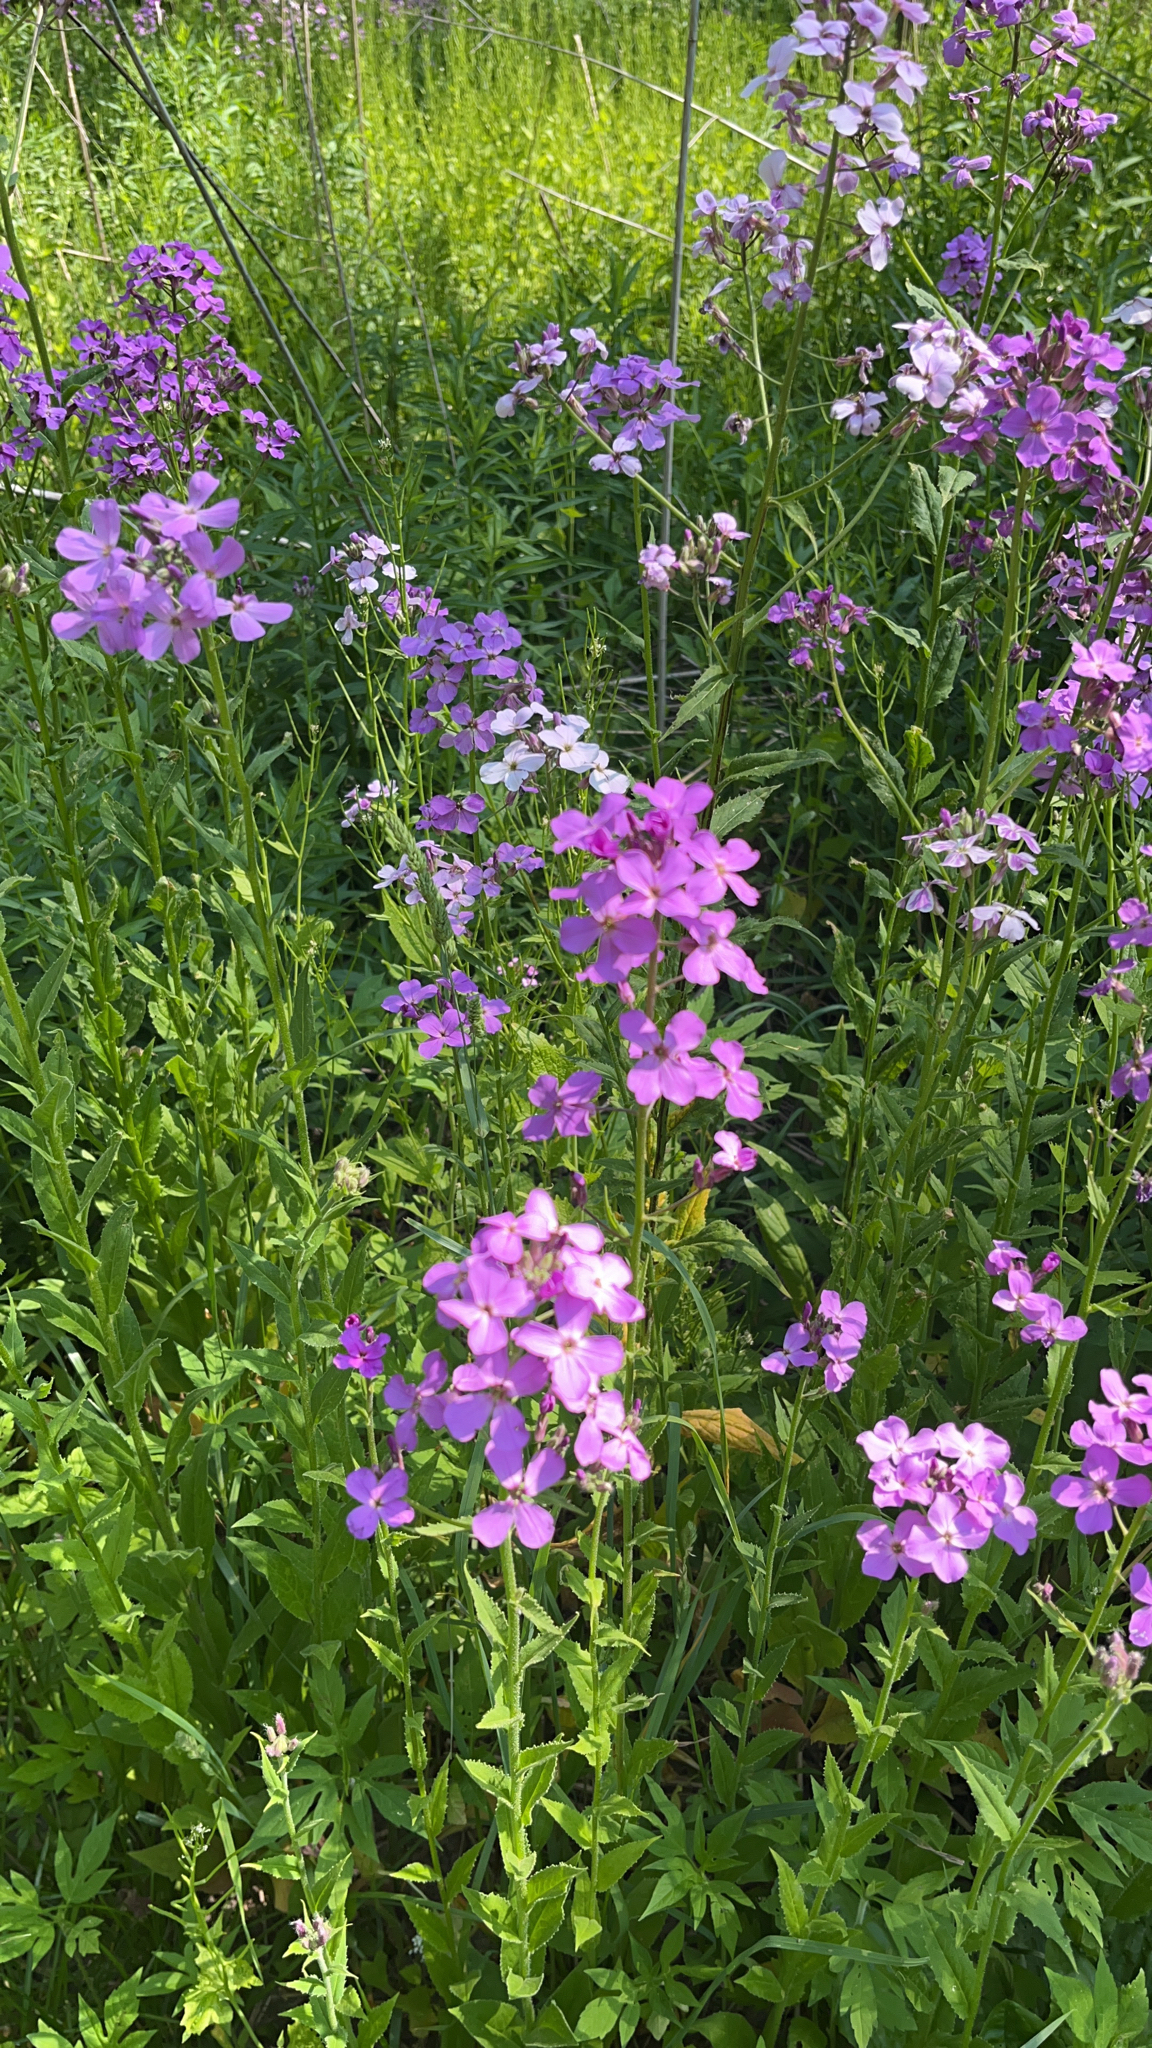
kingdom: Plantae
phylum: Tracheophyta
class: Magnoliopsida
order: Brassicales
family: Brassicaceae
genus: Hesperis
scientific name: Hesperis matronalis
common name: Dame's-violet
